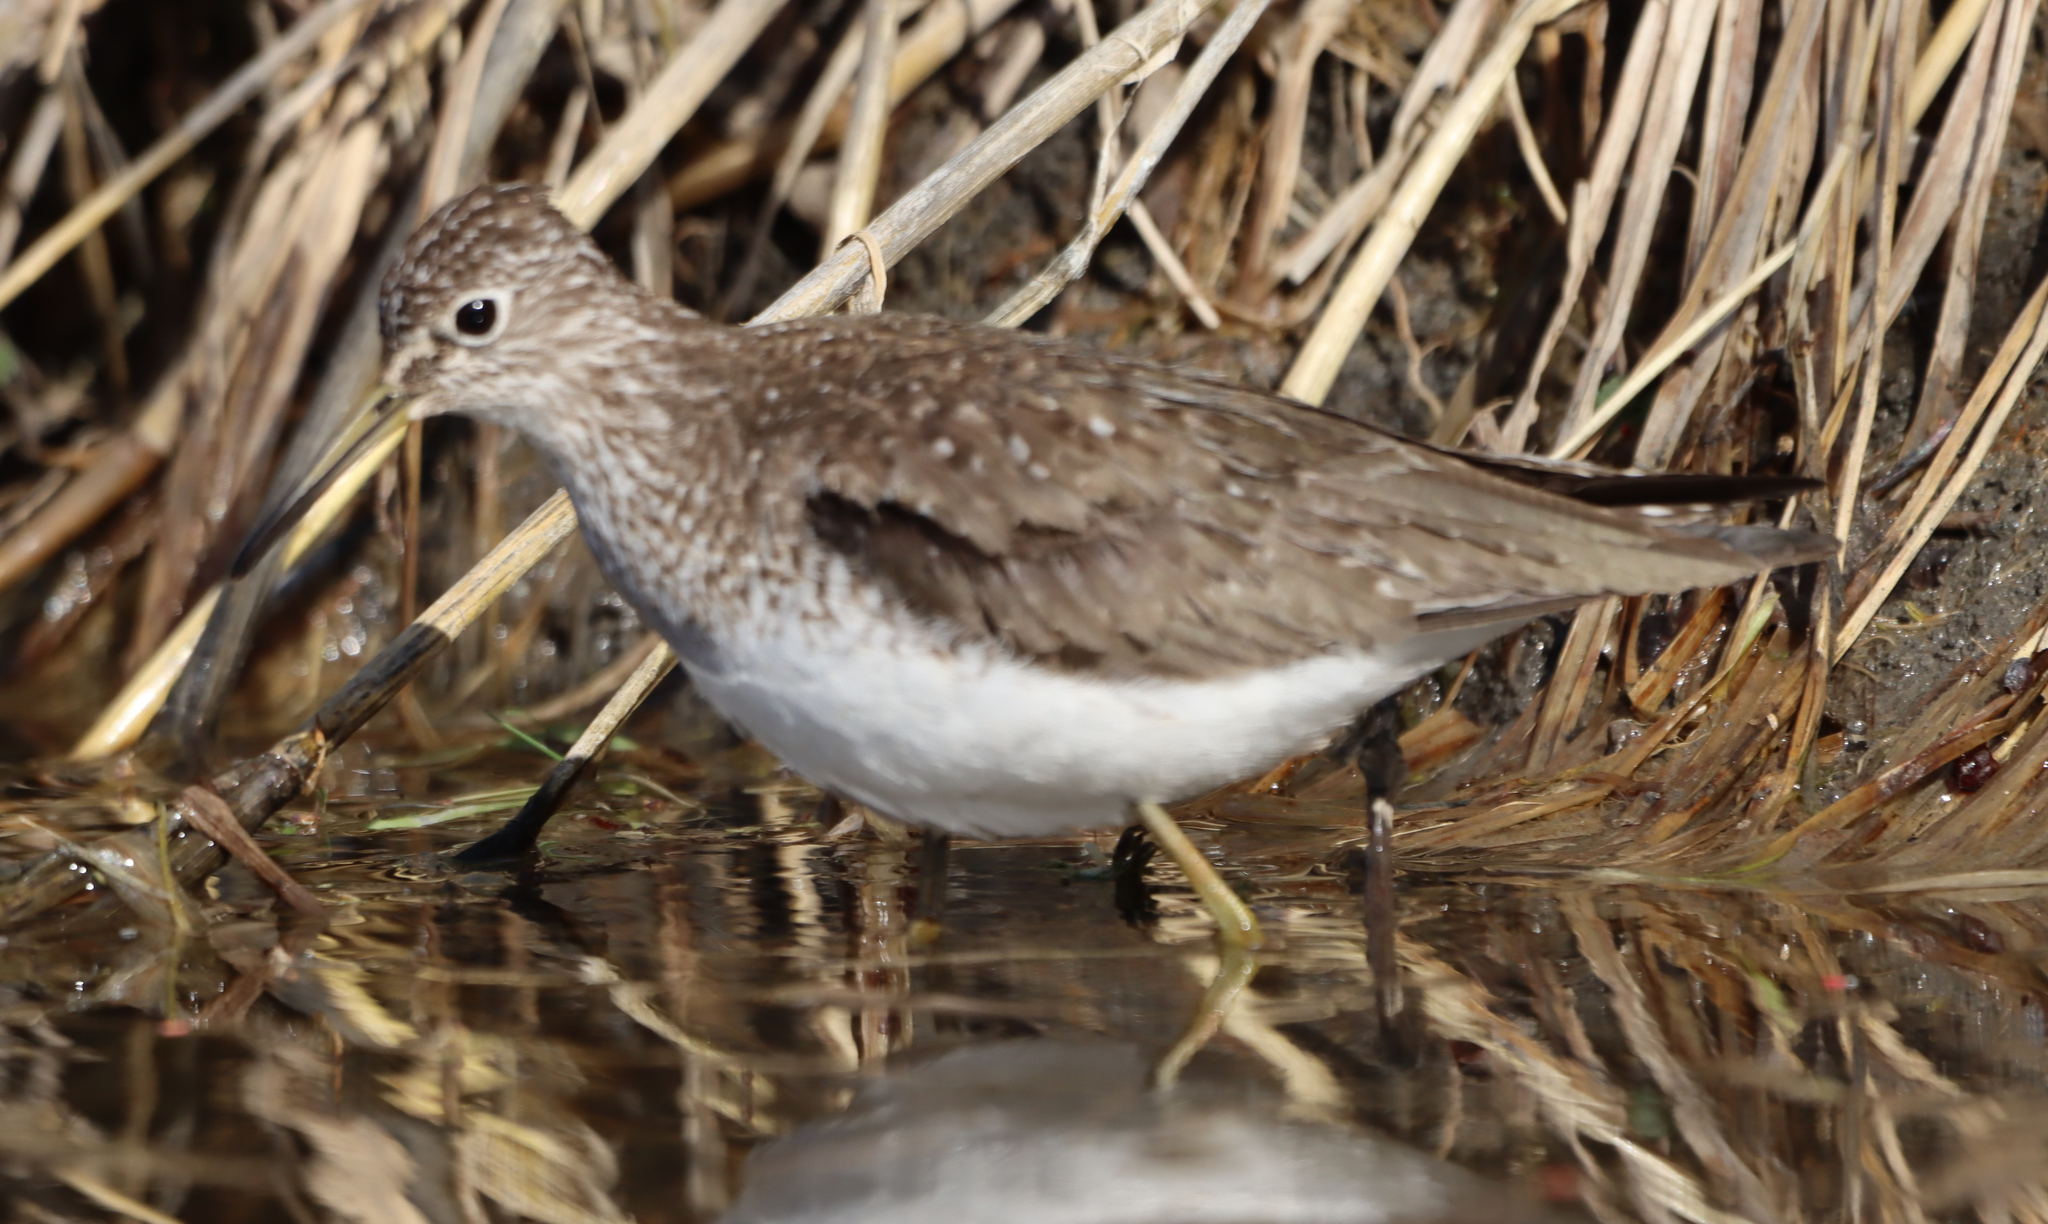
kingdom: Animalia
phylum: Chordata
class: Aves
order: Charadriiformes
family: Scolopacidae
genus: Tringa
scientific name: Tringa solitaria
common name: Solitary sandpiper
